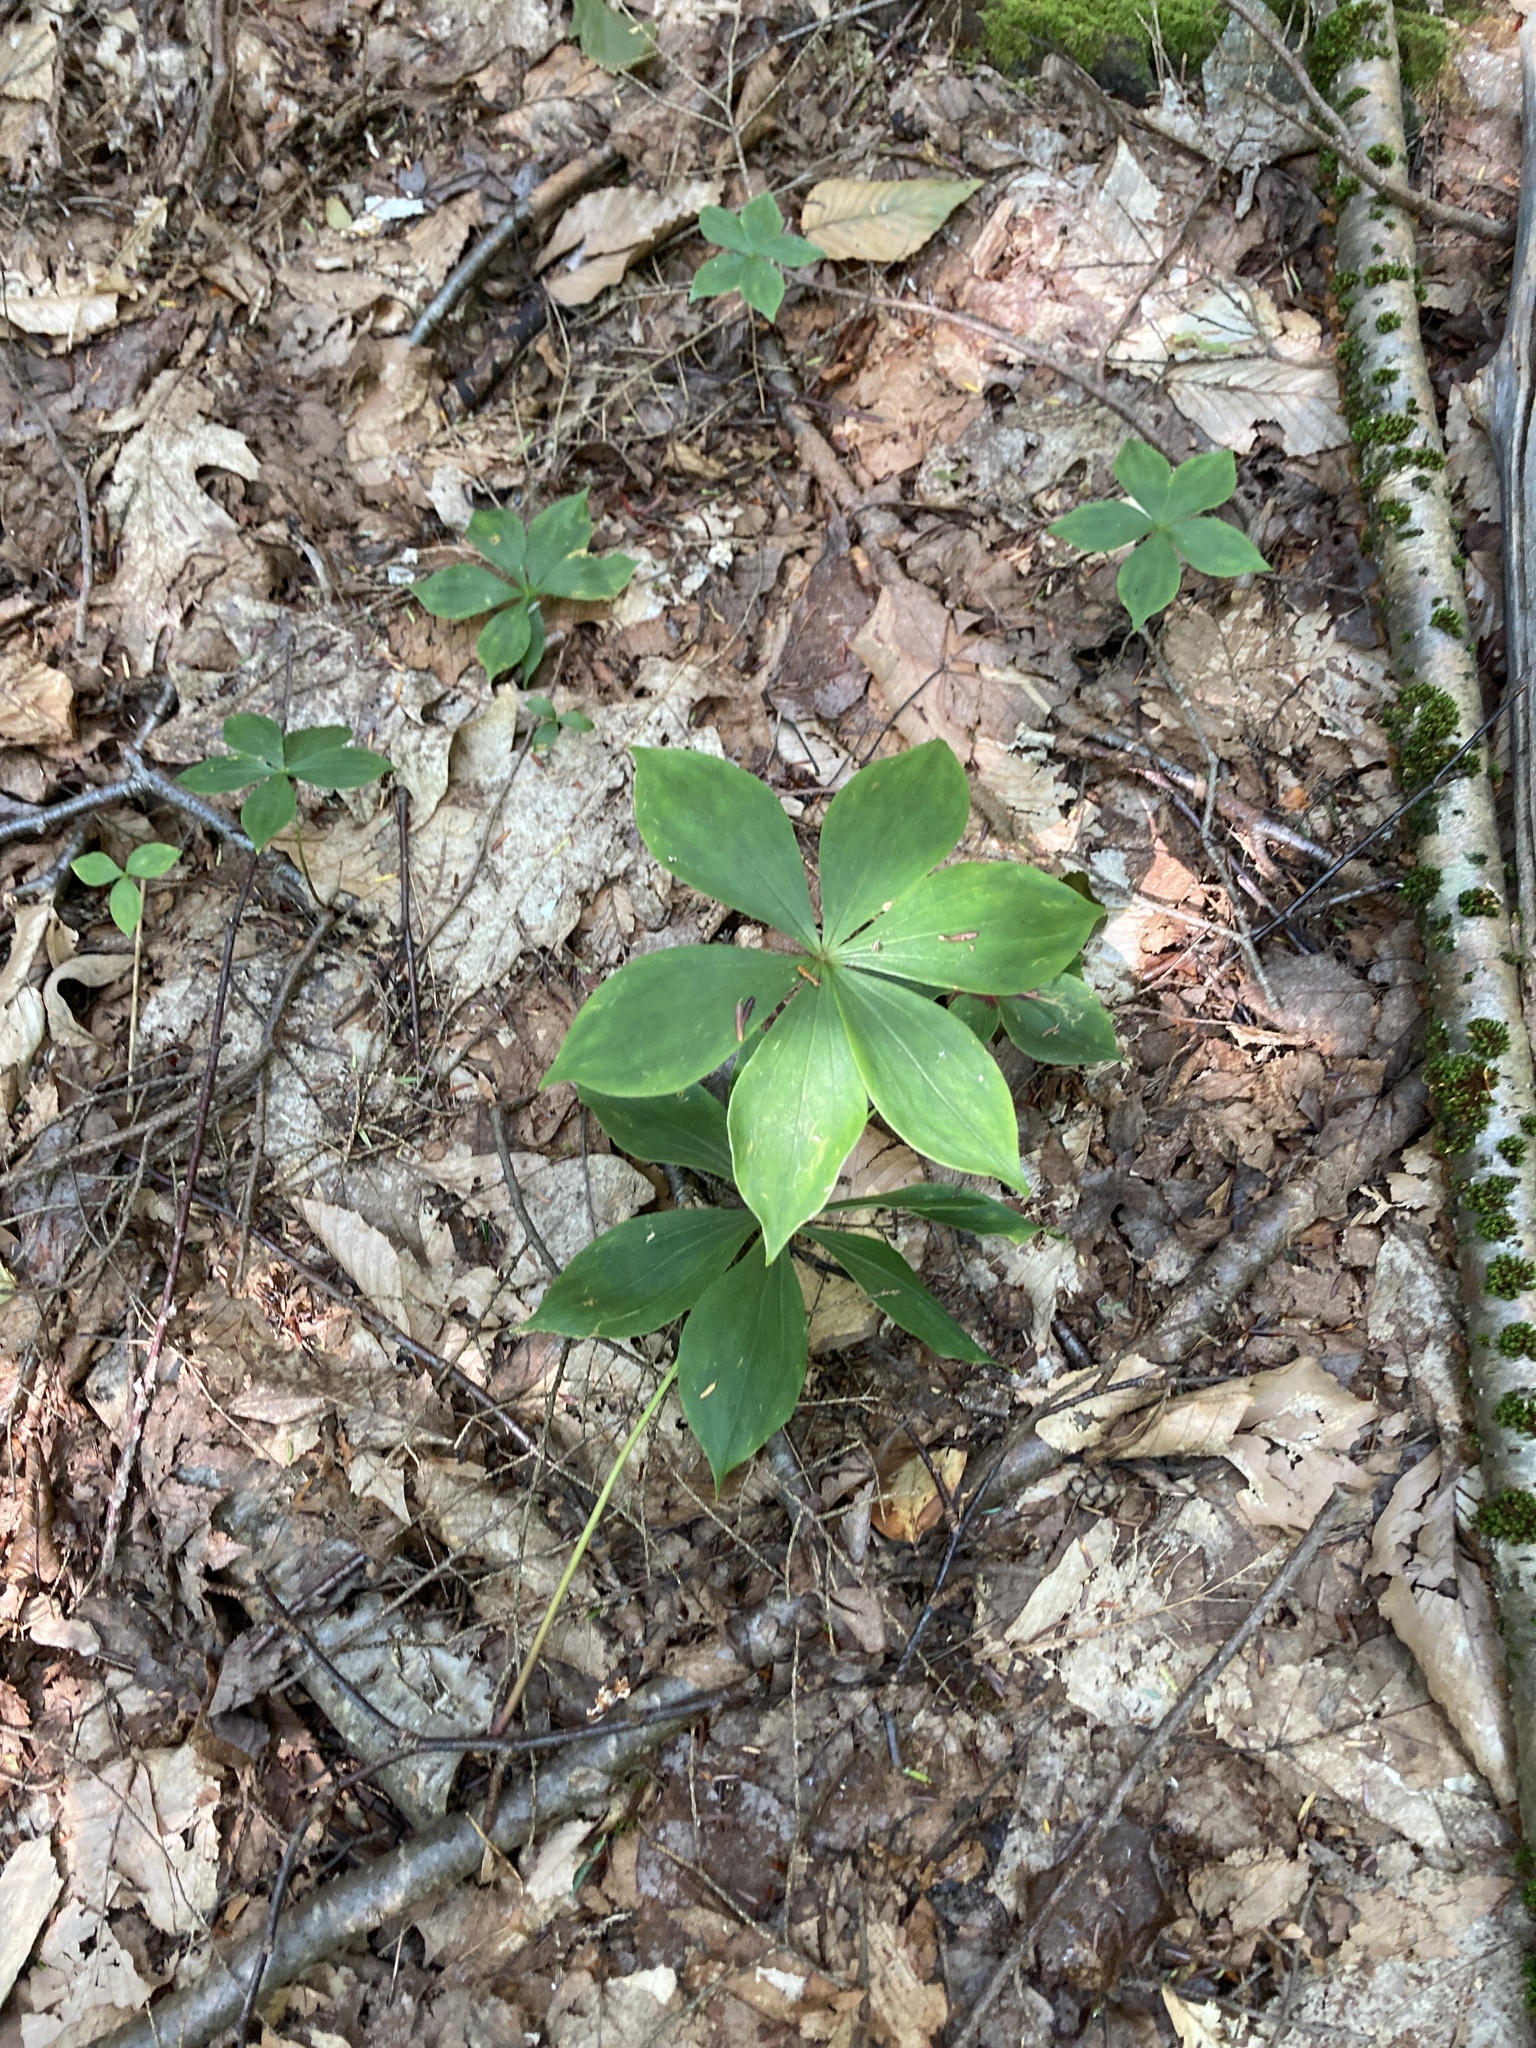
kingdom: Plantae
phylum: Tracheophyta
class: Liliopsida
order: Liliales
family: Liliaceae
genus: Medeola
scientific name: Medeola virginiana
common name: Indian cucumber-root
